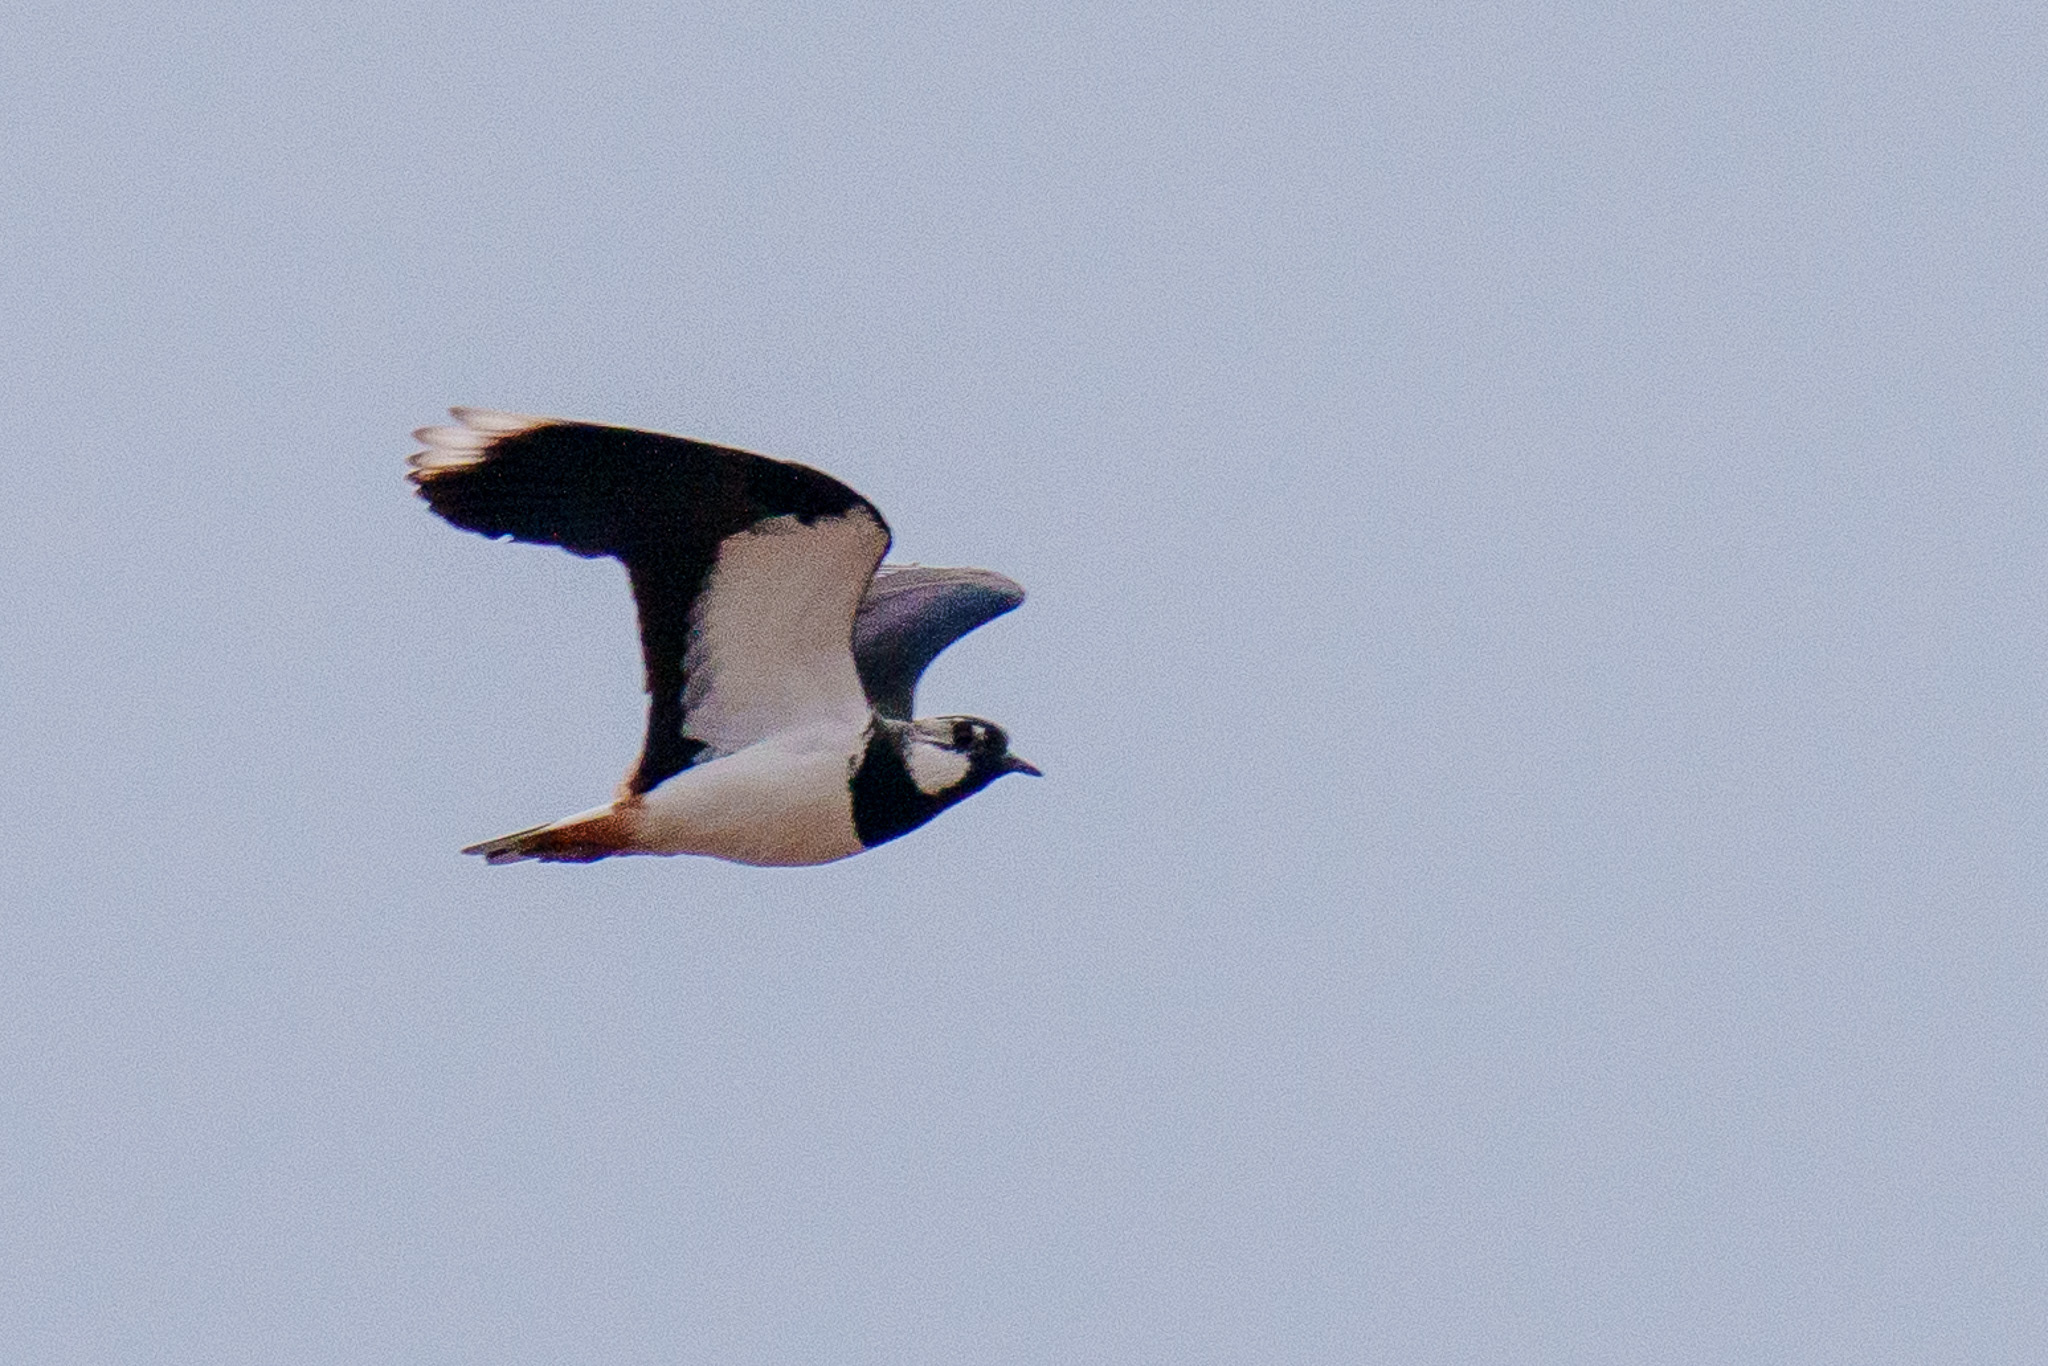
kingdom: Animalia
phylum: Chordata
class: Aves
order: Charadriiformes
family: Charadriidae
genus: Vanellus
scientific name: Vanellus vanellus
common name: Northern lapwing
